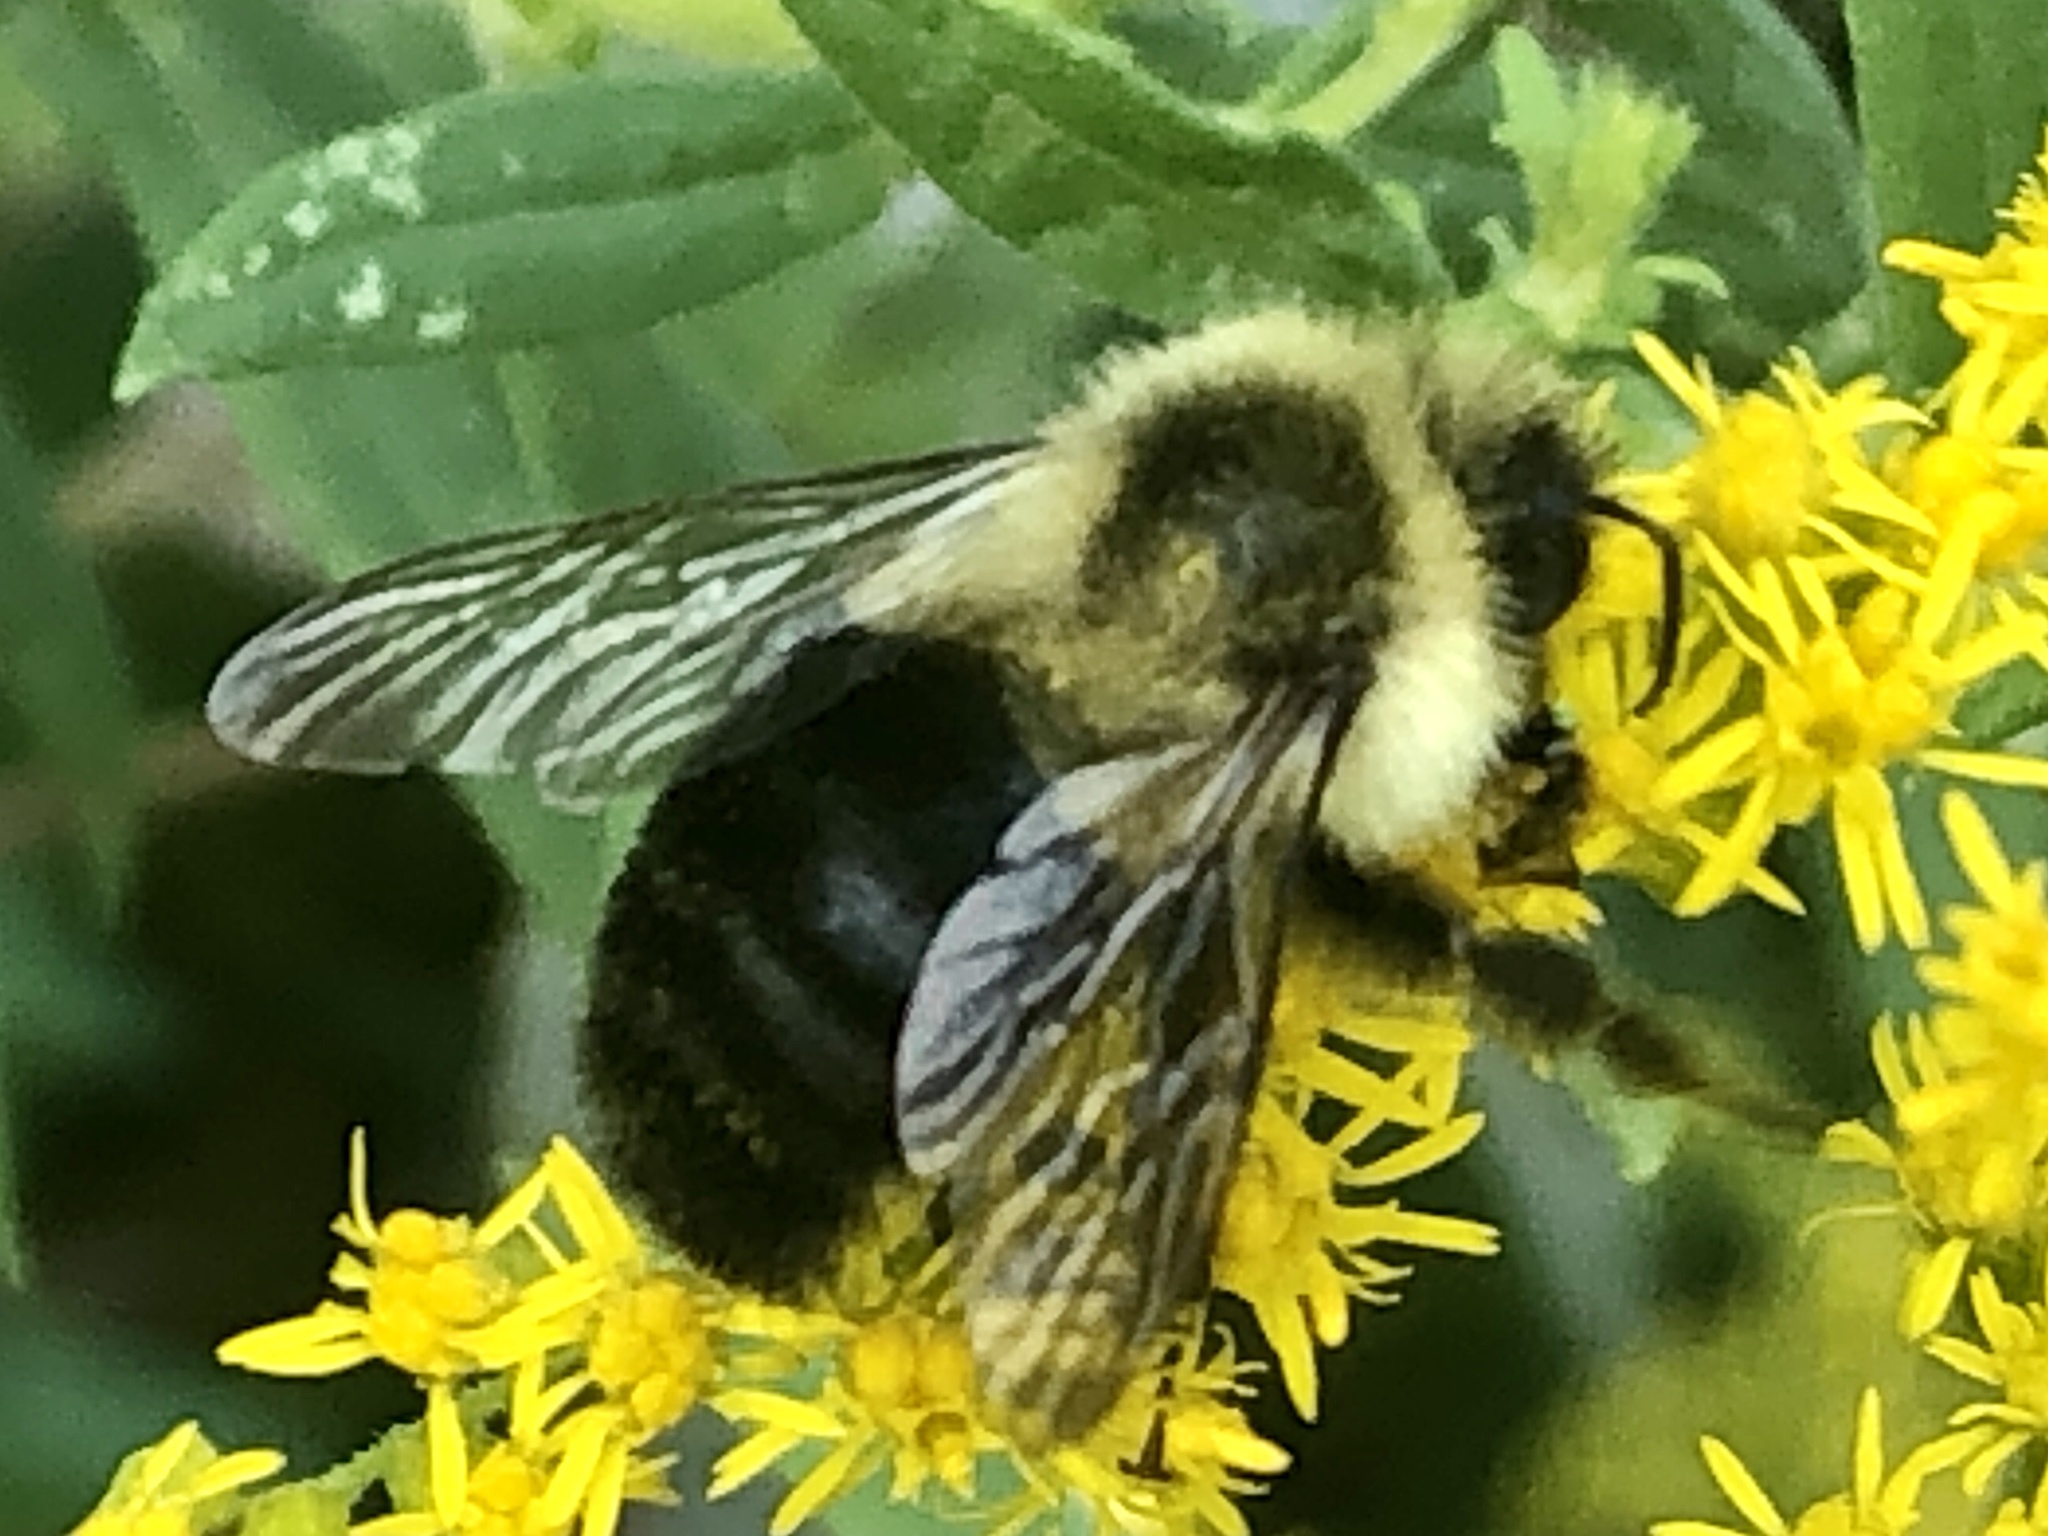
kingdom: Animalia
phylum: Arthropoda
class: Insecta
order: Hymenoptera
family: Apidae
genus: Bombus
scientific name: Bombus impatiens
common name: Common eastern bumble bee
